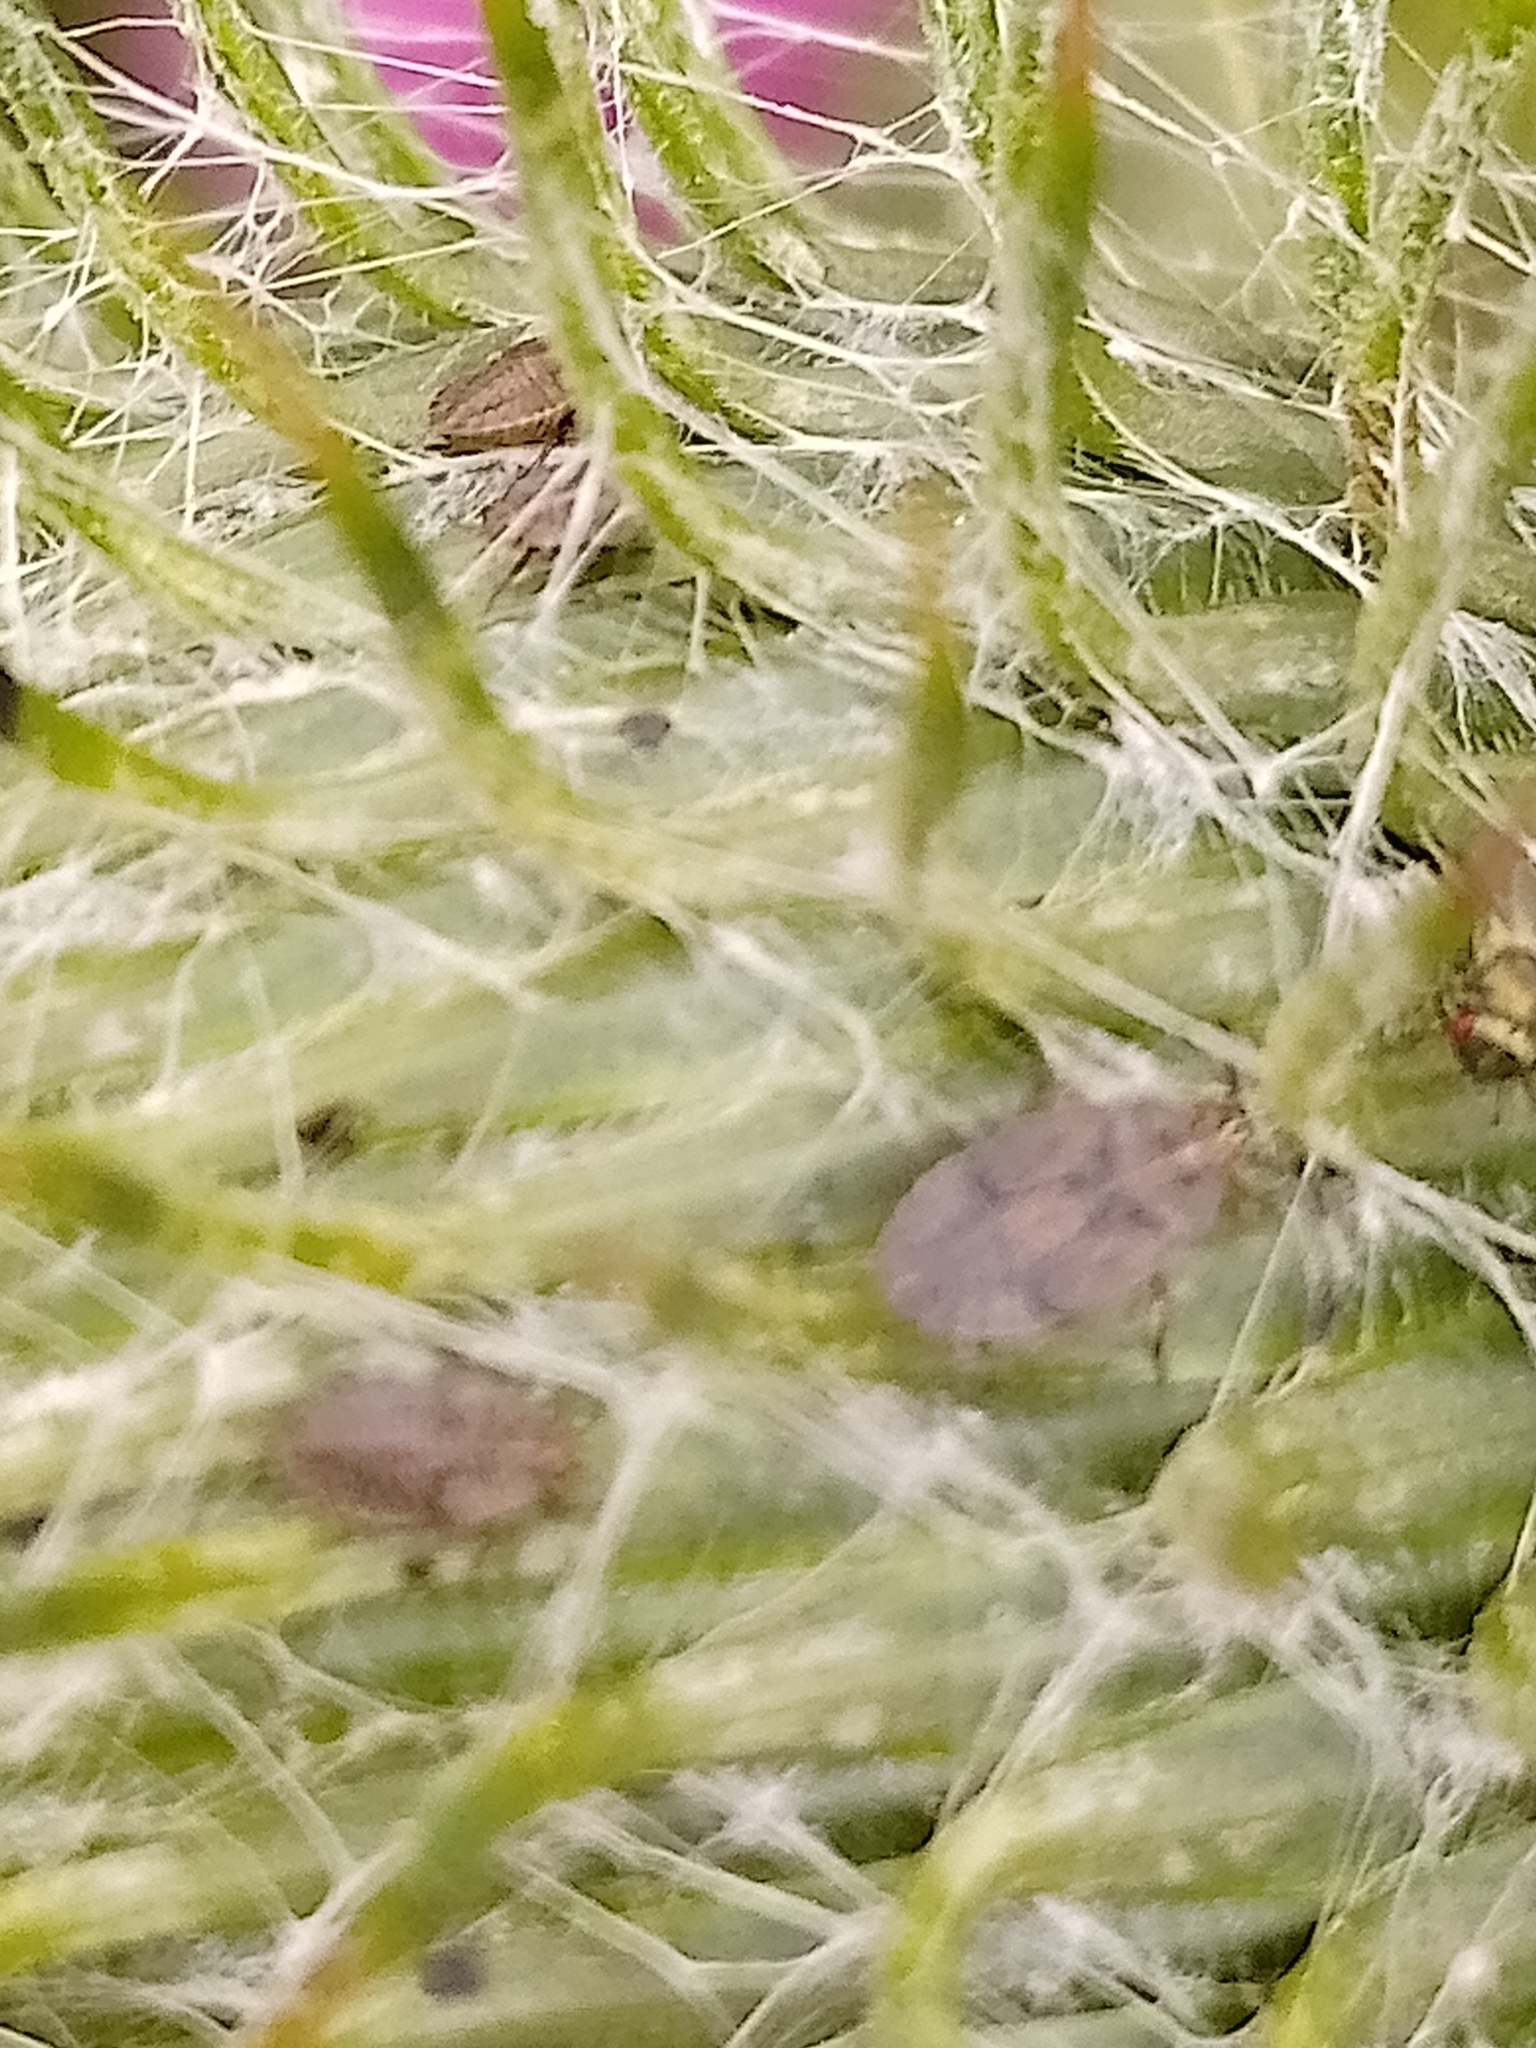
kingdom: Animalia
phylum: Arthropoda
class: Insecta
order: Hemiptera
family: Tingidae
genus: Tingis
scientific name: Tingis cardui
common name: Spear thistle lacebug
